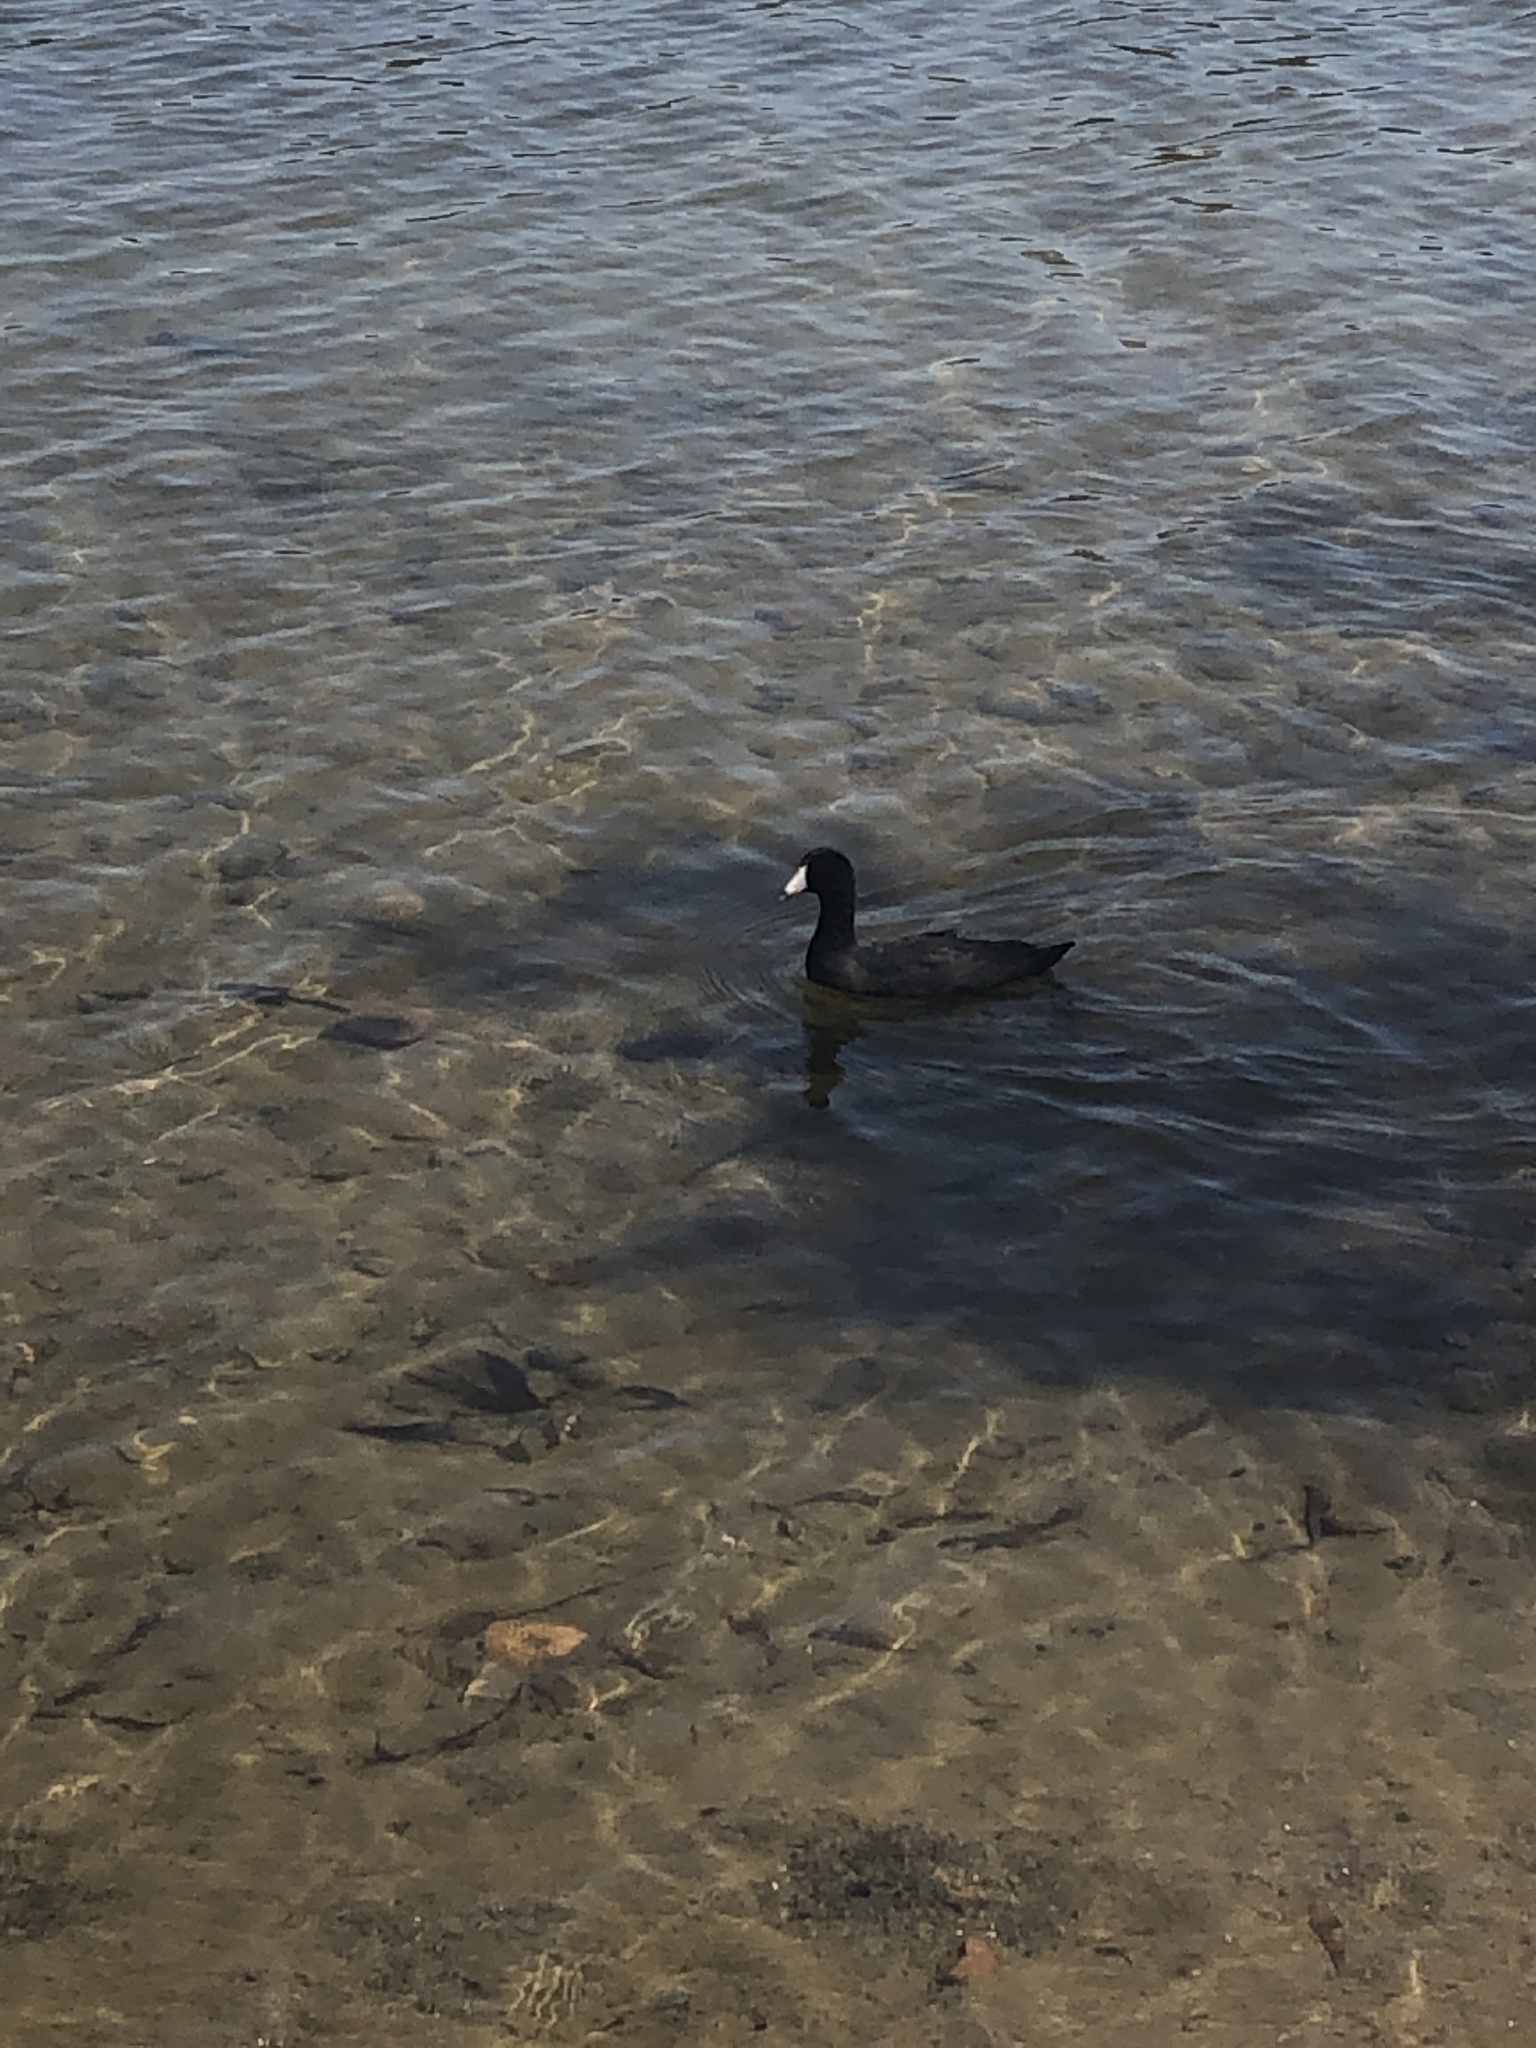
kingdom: Animalia
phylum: Chordata
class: Aves
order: Gruiformes
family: Rallidae
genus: Fulica
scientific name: Fulica americana
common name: American coot
